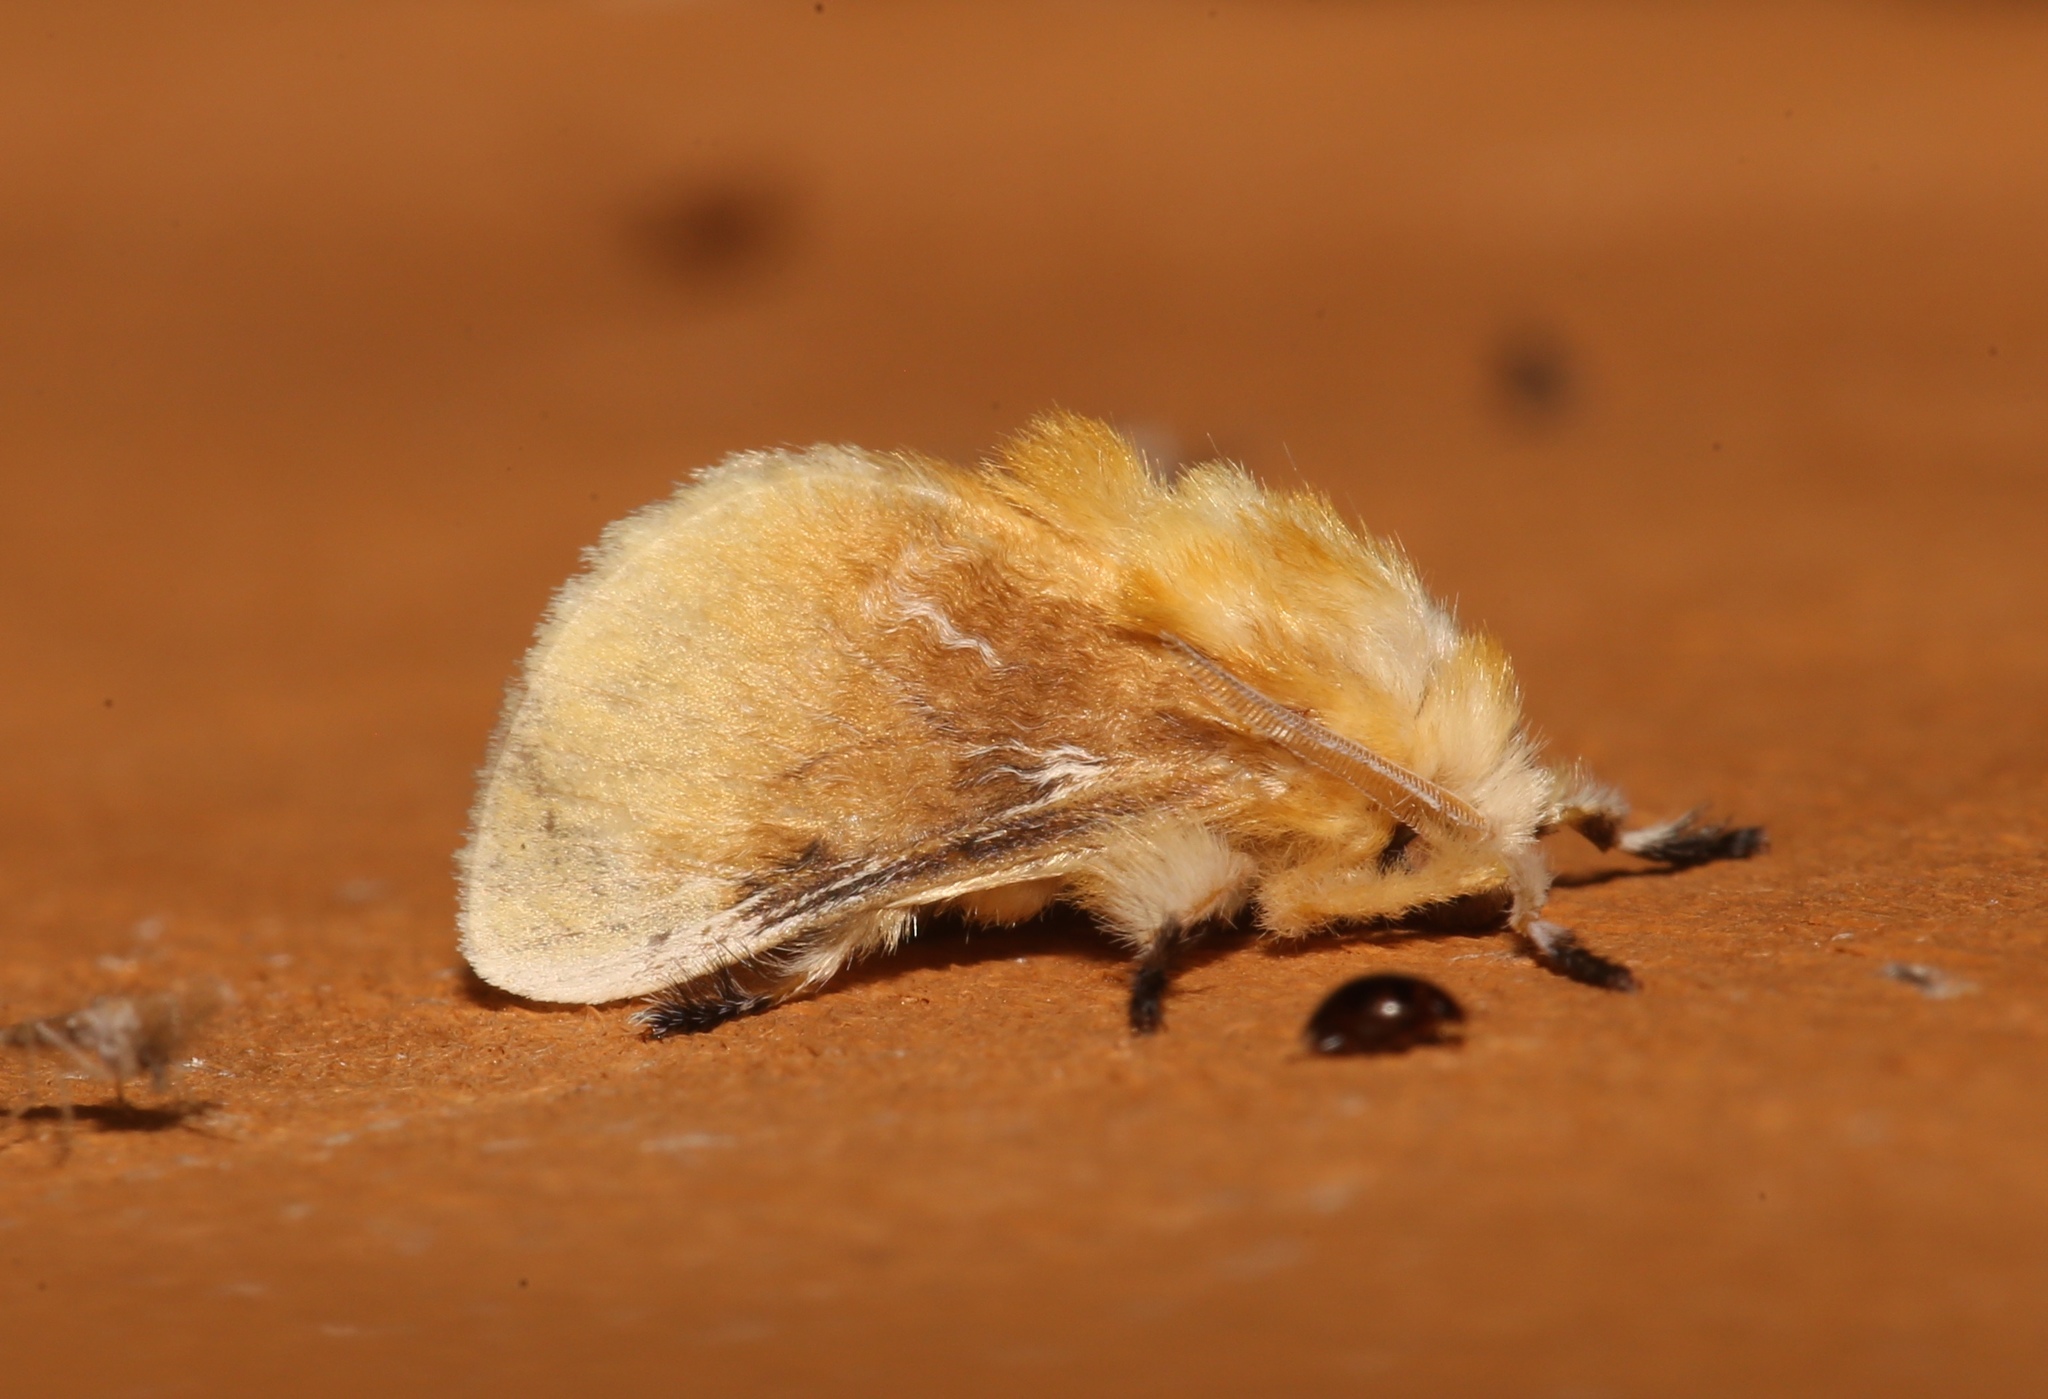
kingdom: Animalia
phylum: Arthropoda
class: Insecta
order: Lepidoptera
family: Megalopygidae
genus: Megalopyge
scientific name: Megalopyge opercularis
